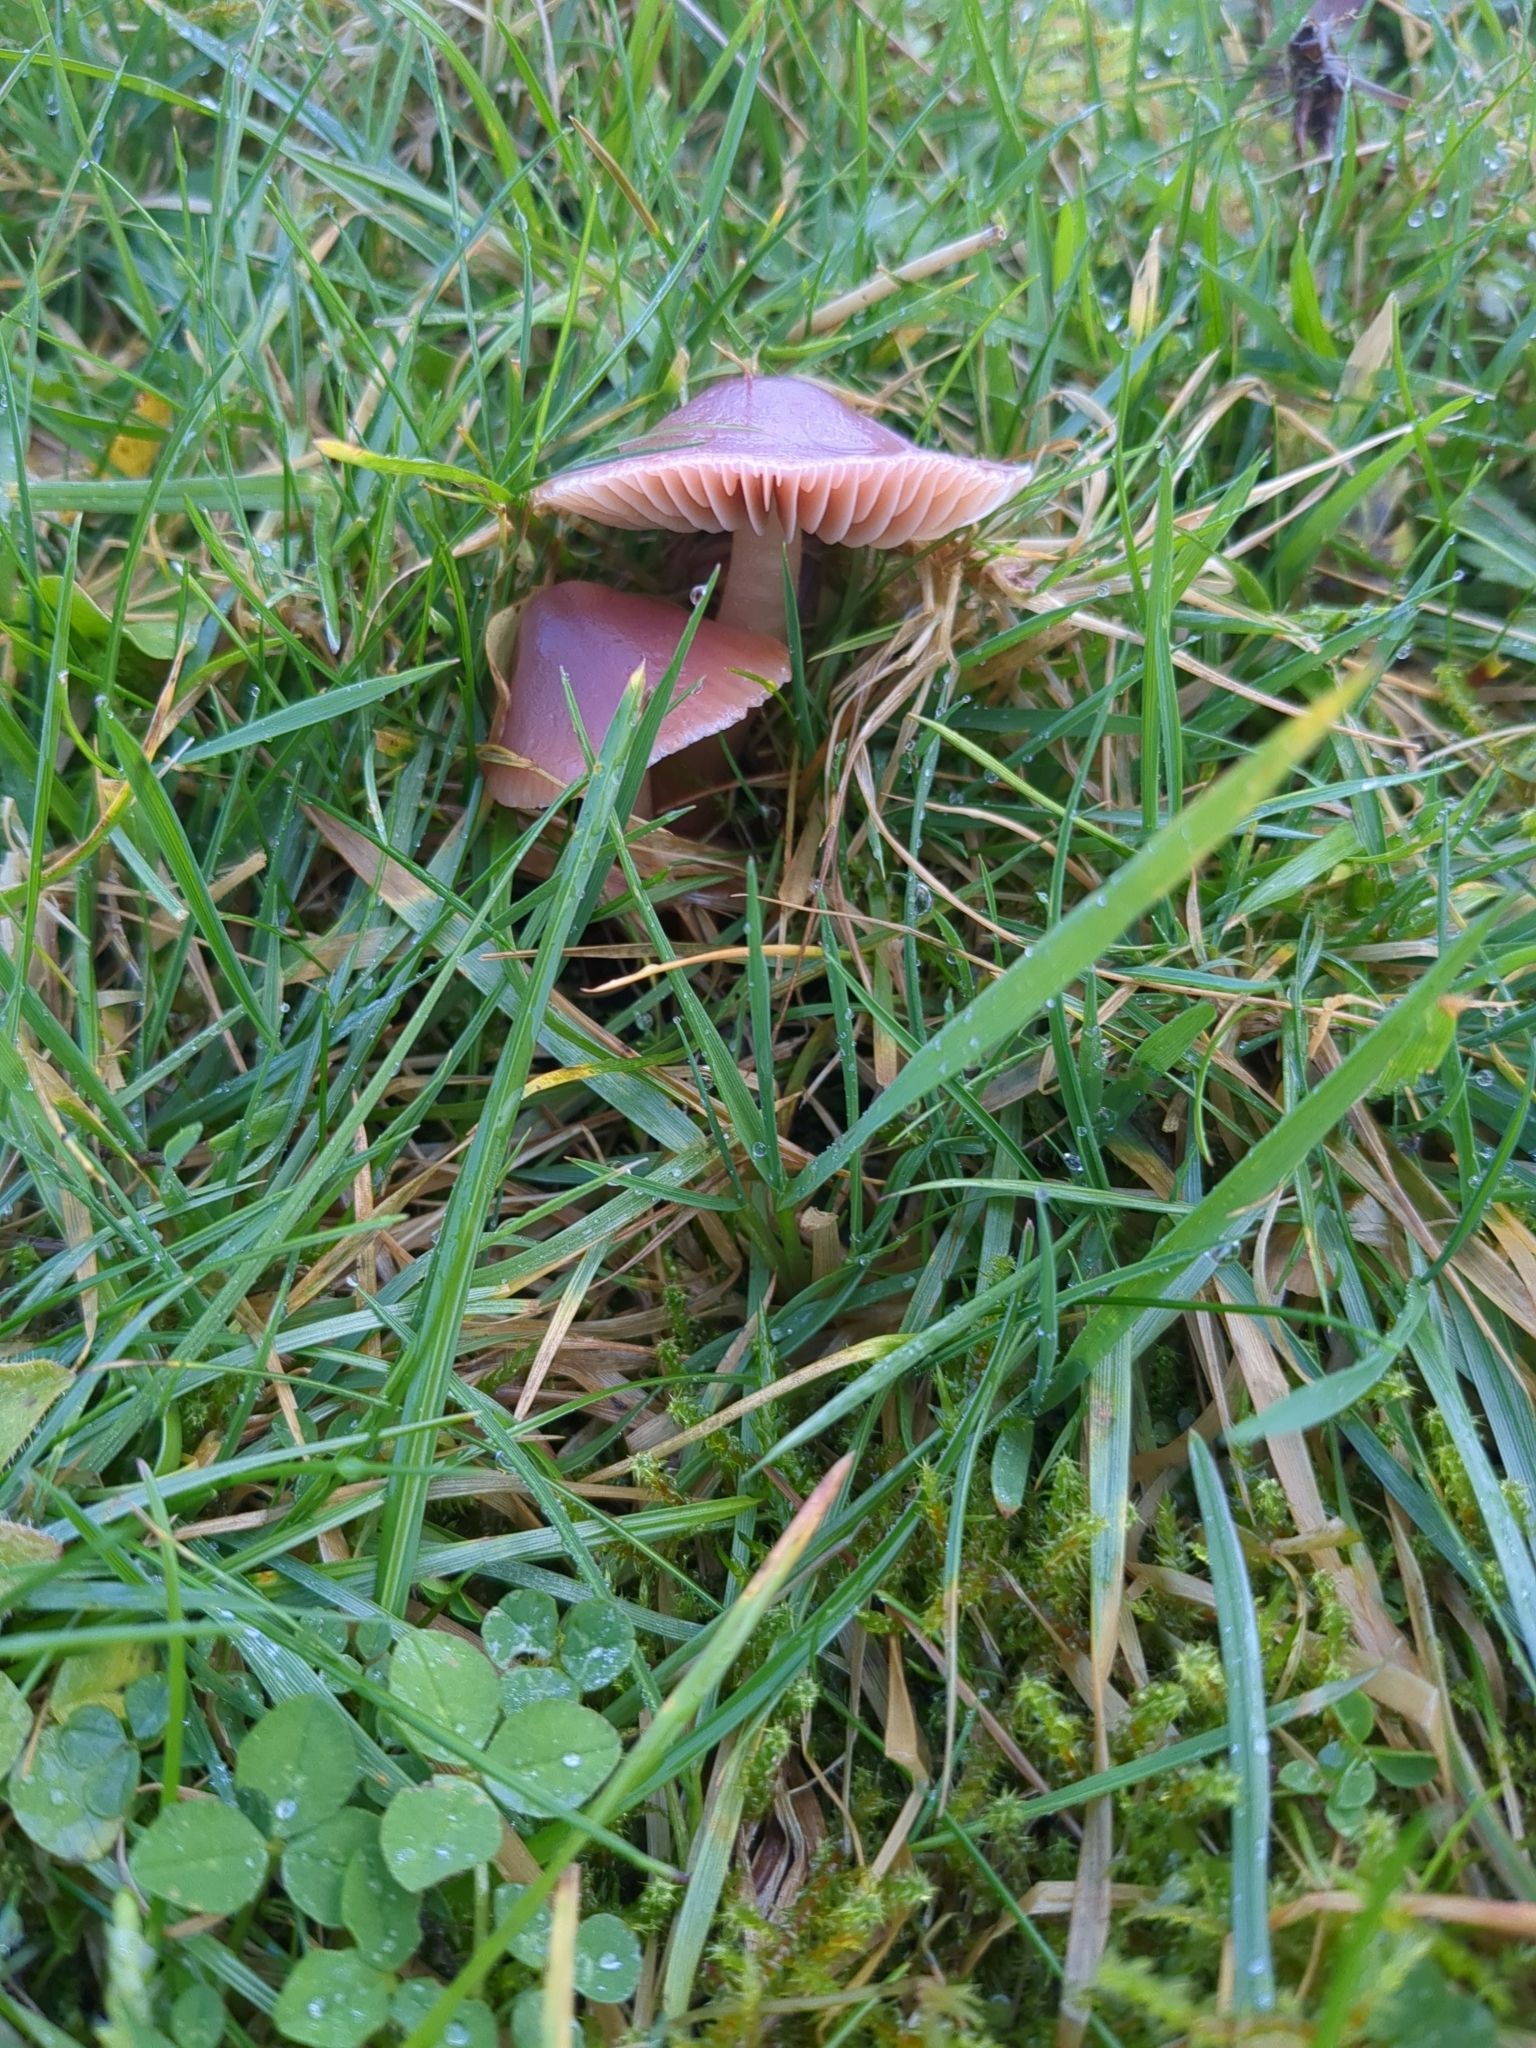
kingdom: Fungi
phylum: Basidiomycota
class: Agaricomycetes
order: Agaricales
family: Hygrophoraceae
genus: Gliophorus
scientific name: Gliophorus reginae
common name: Jubilee waxcap
